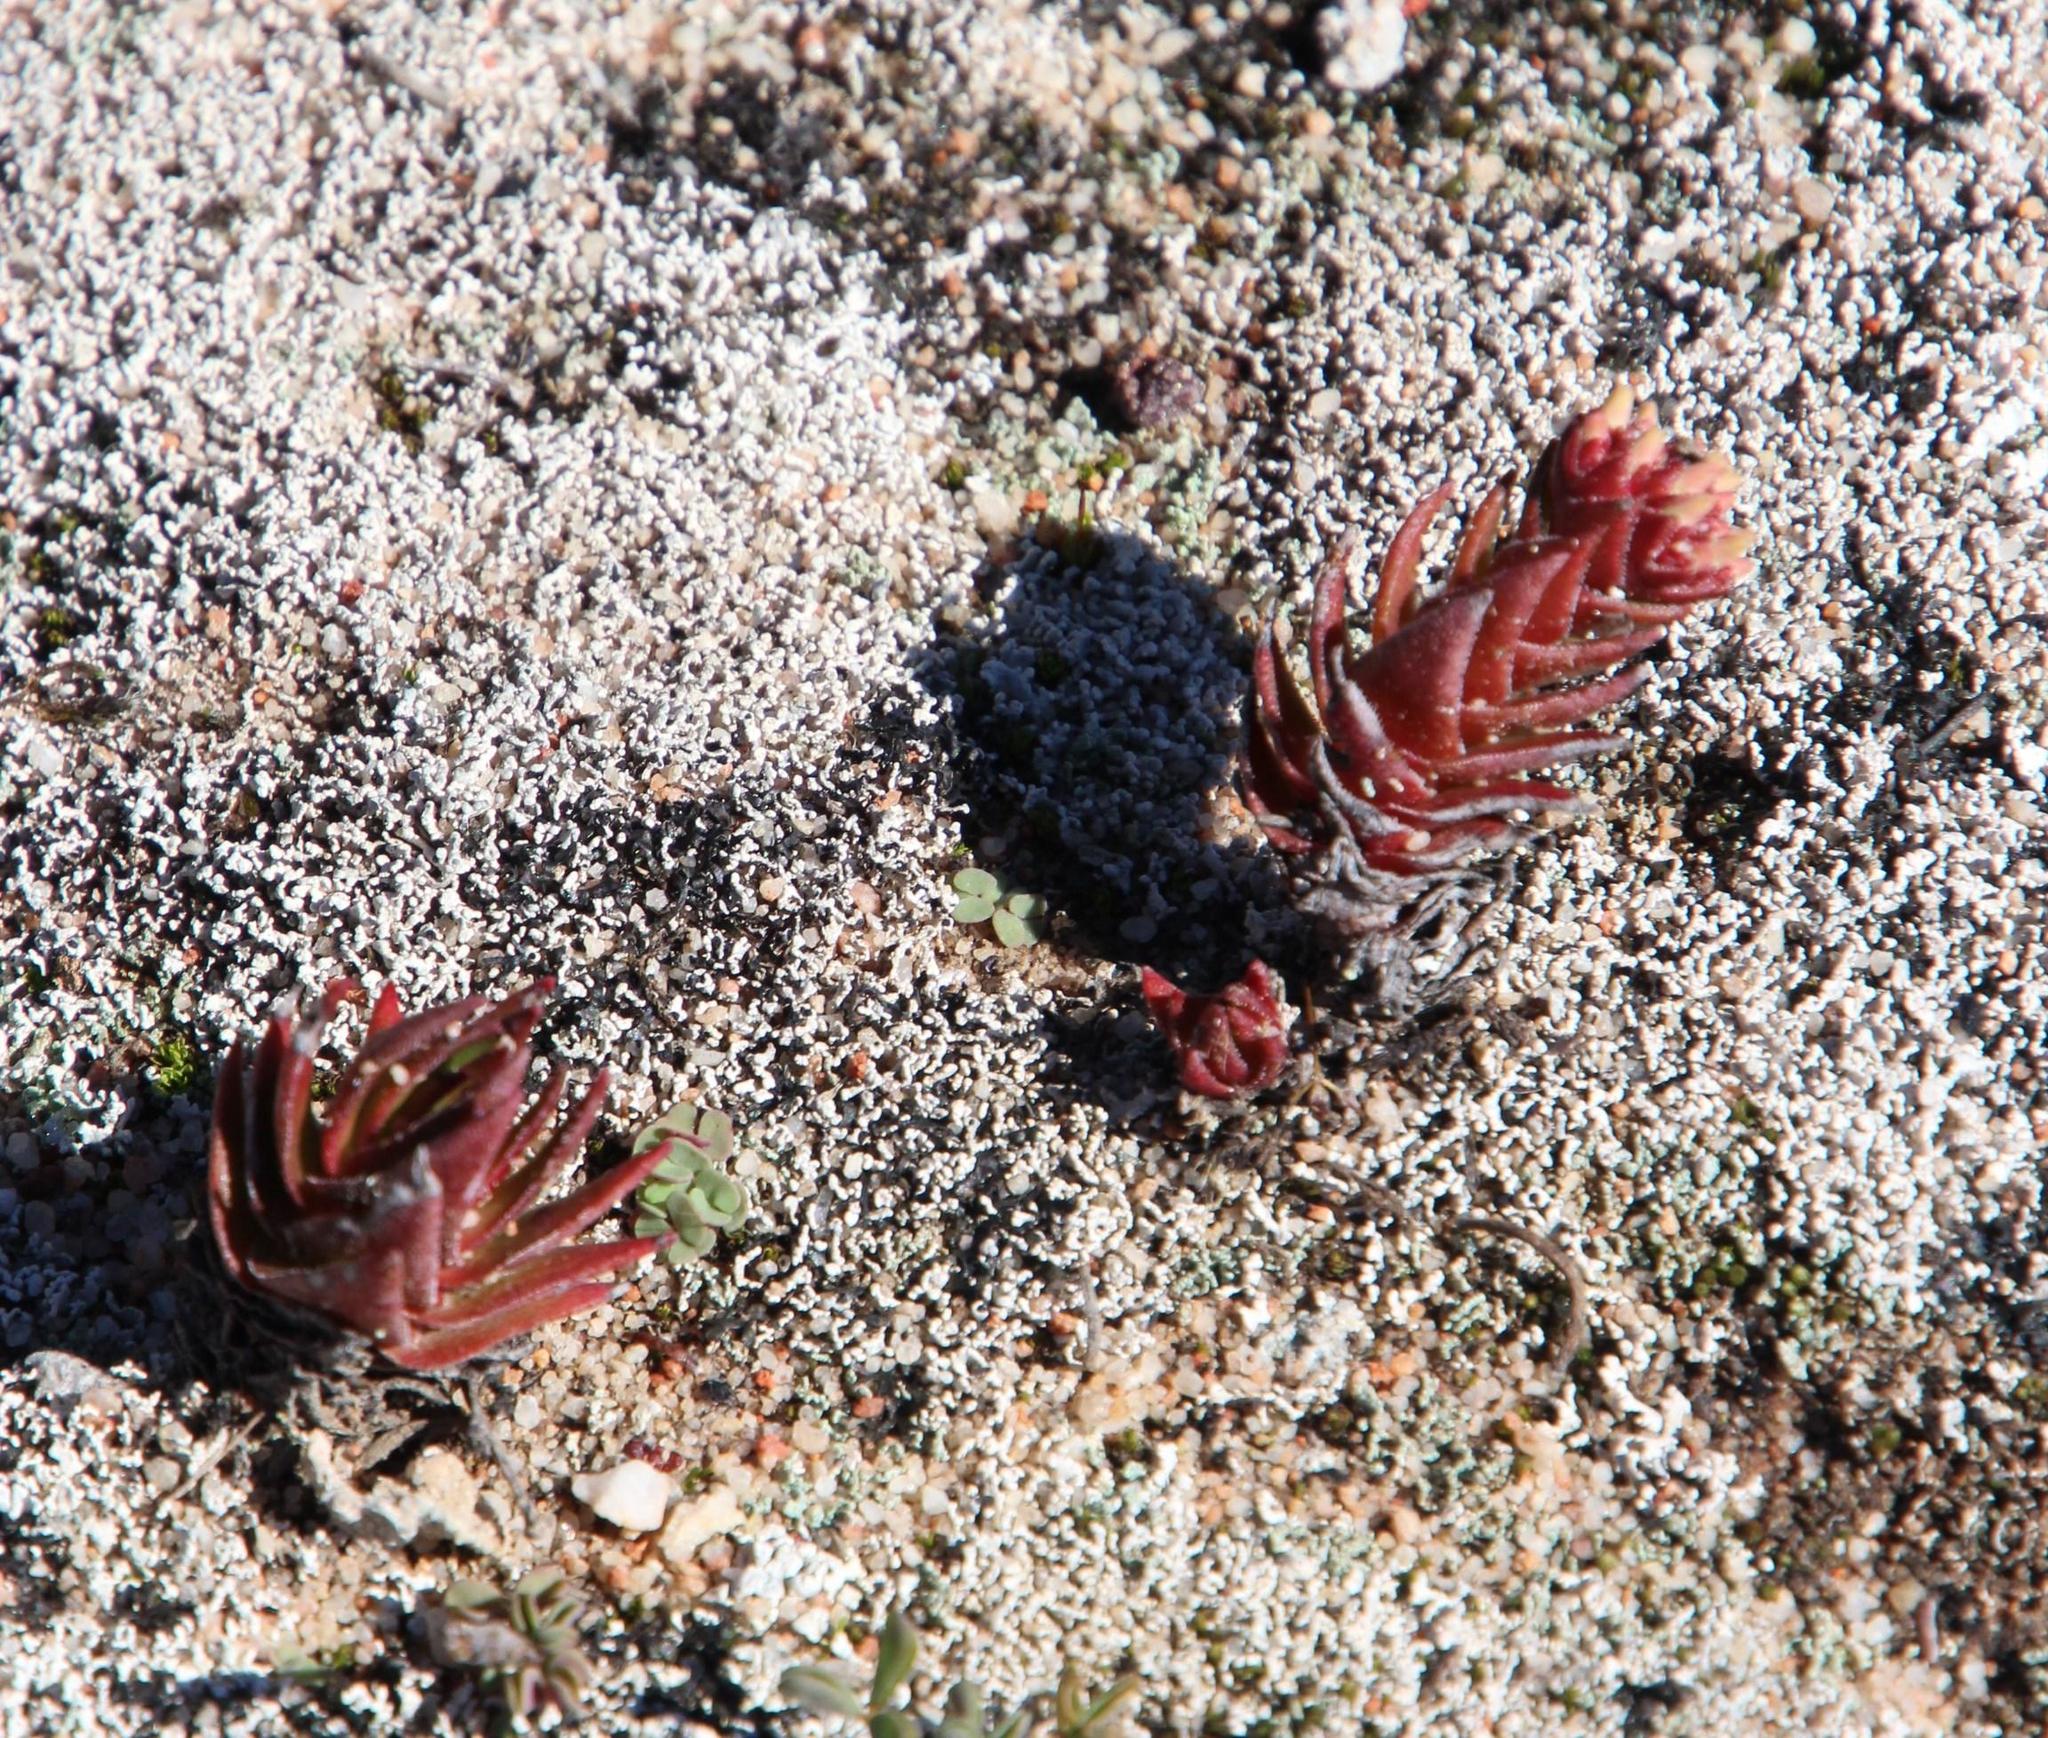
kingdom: Plantae
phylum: Tracheophyta
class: Magnoliopsida
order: Saxifragales
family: Crassulaceae
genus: Crassula
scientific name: Crassula alpestris
